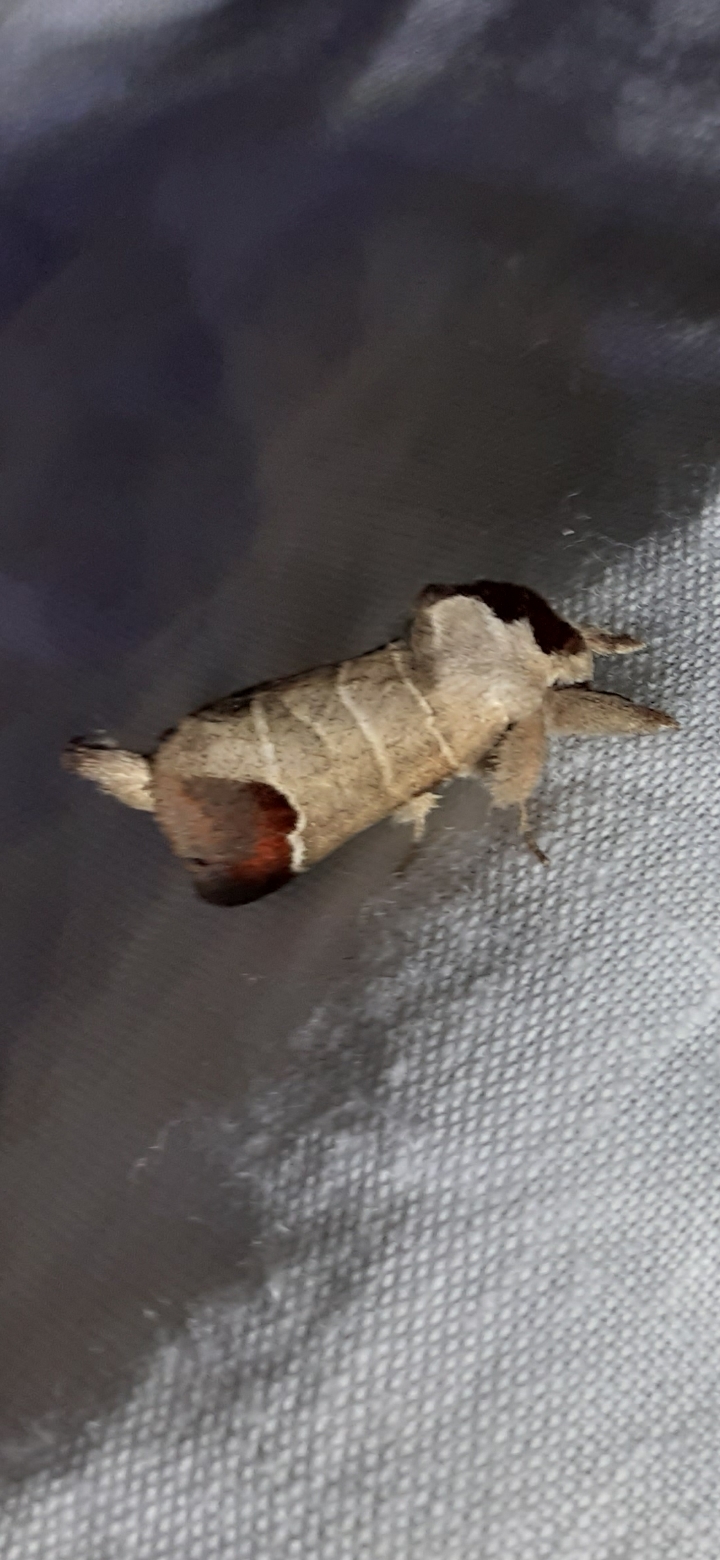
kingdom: Animalia
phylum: Arthropoda
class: Insecta
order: Lepidoptera
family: Notodontidae
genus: Clostera
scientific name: Clostera curtula
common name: Chocolate-tip
